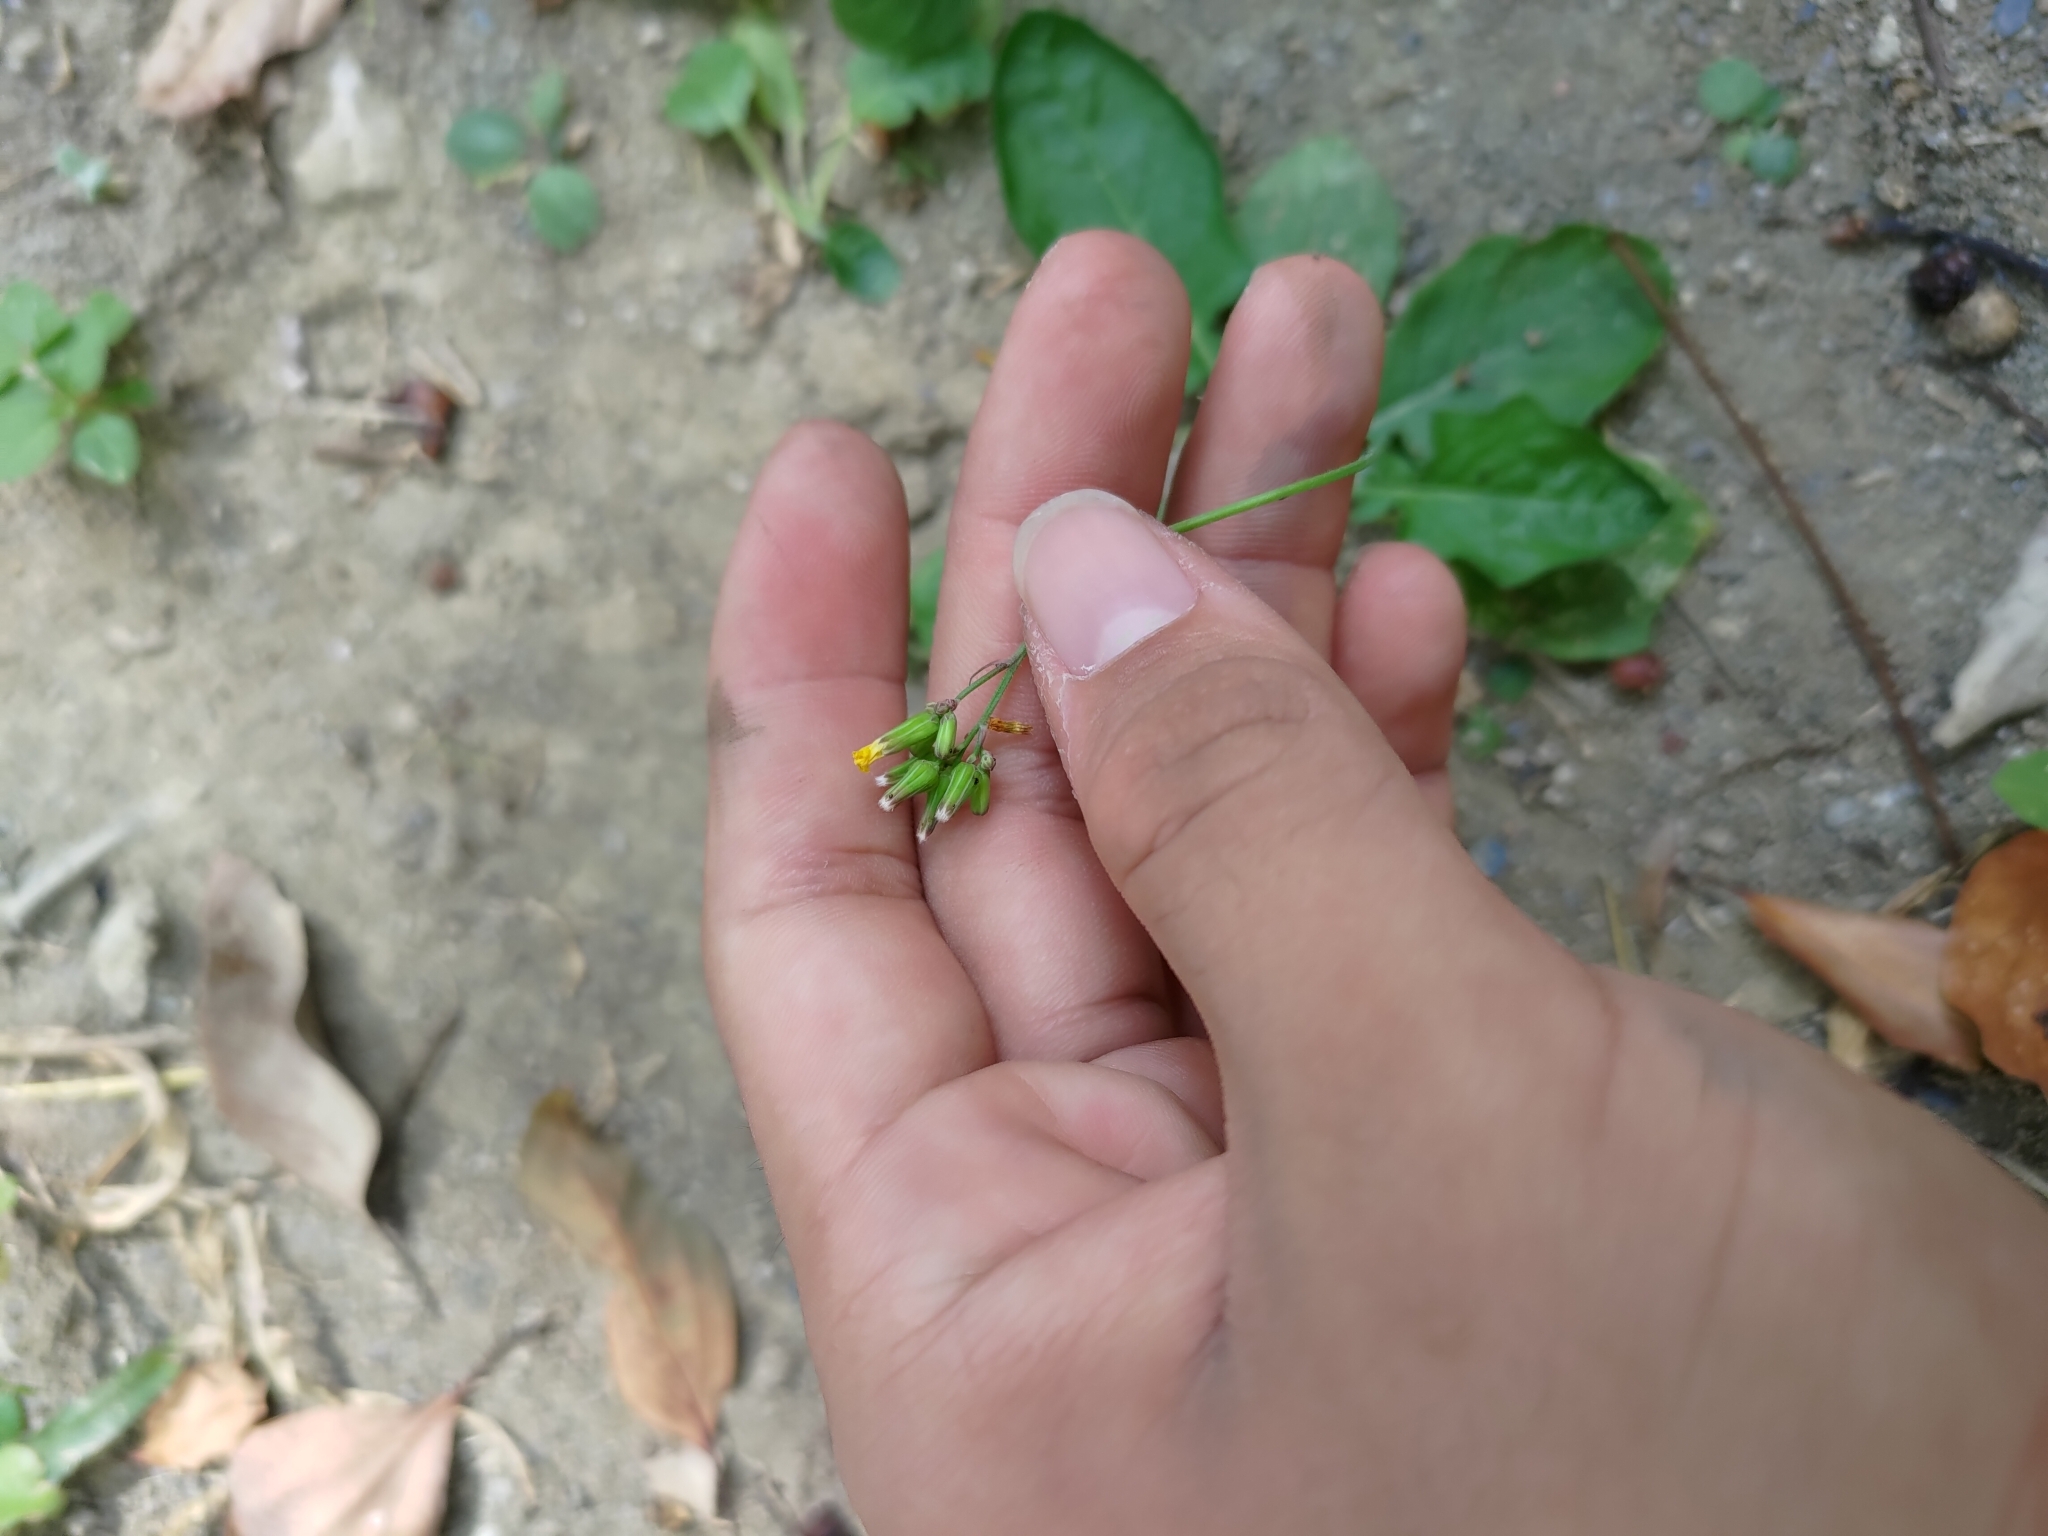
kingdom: Plantae
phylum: Tracheophyta
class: Magnoliopsida
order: Asterales
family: Asteraceae
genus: Youngia
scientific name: Youngia japonica
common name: Oriental false hawksbeard
